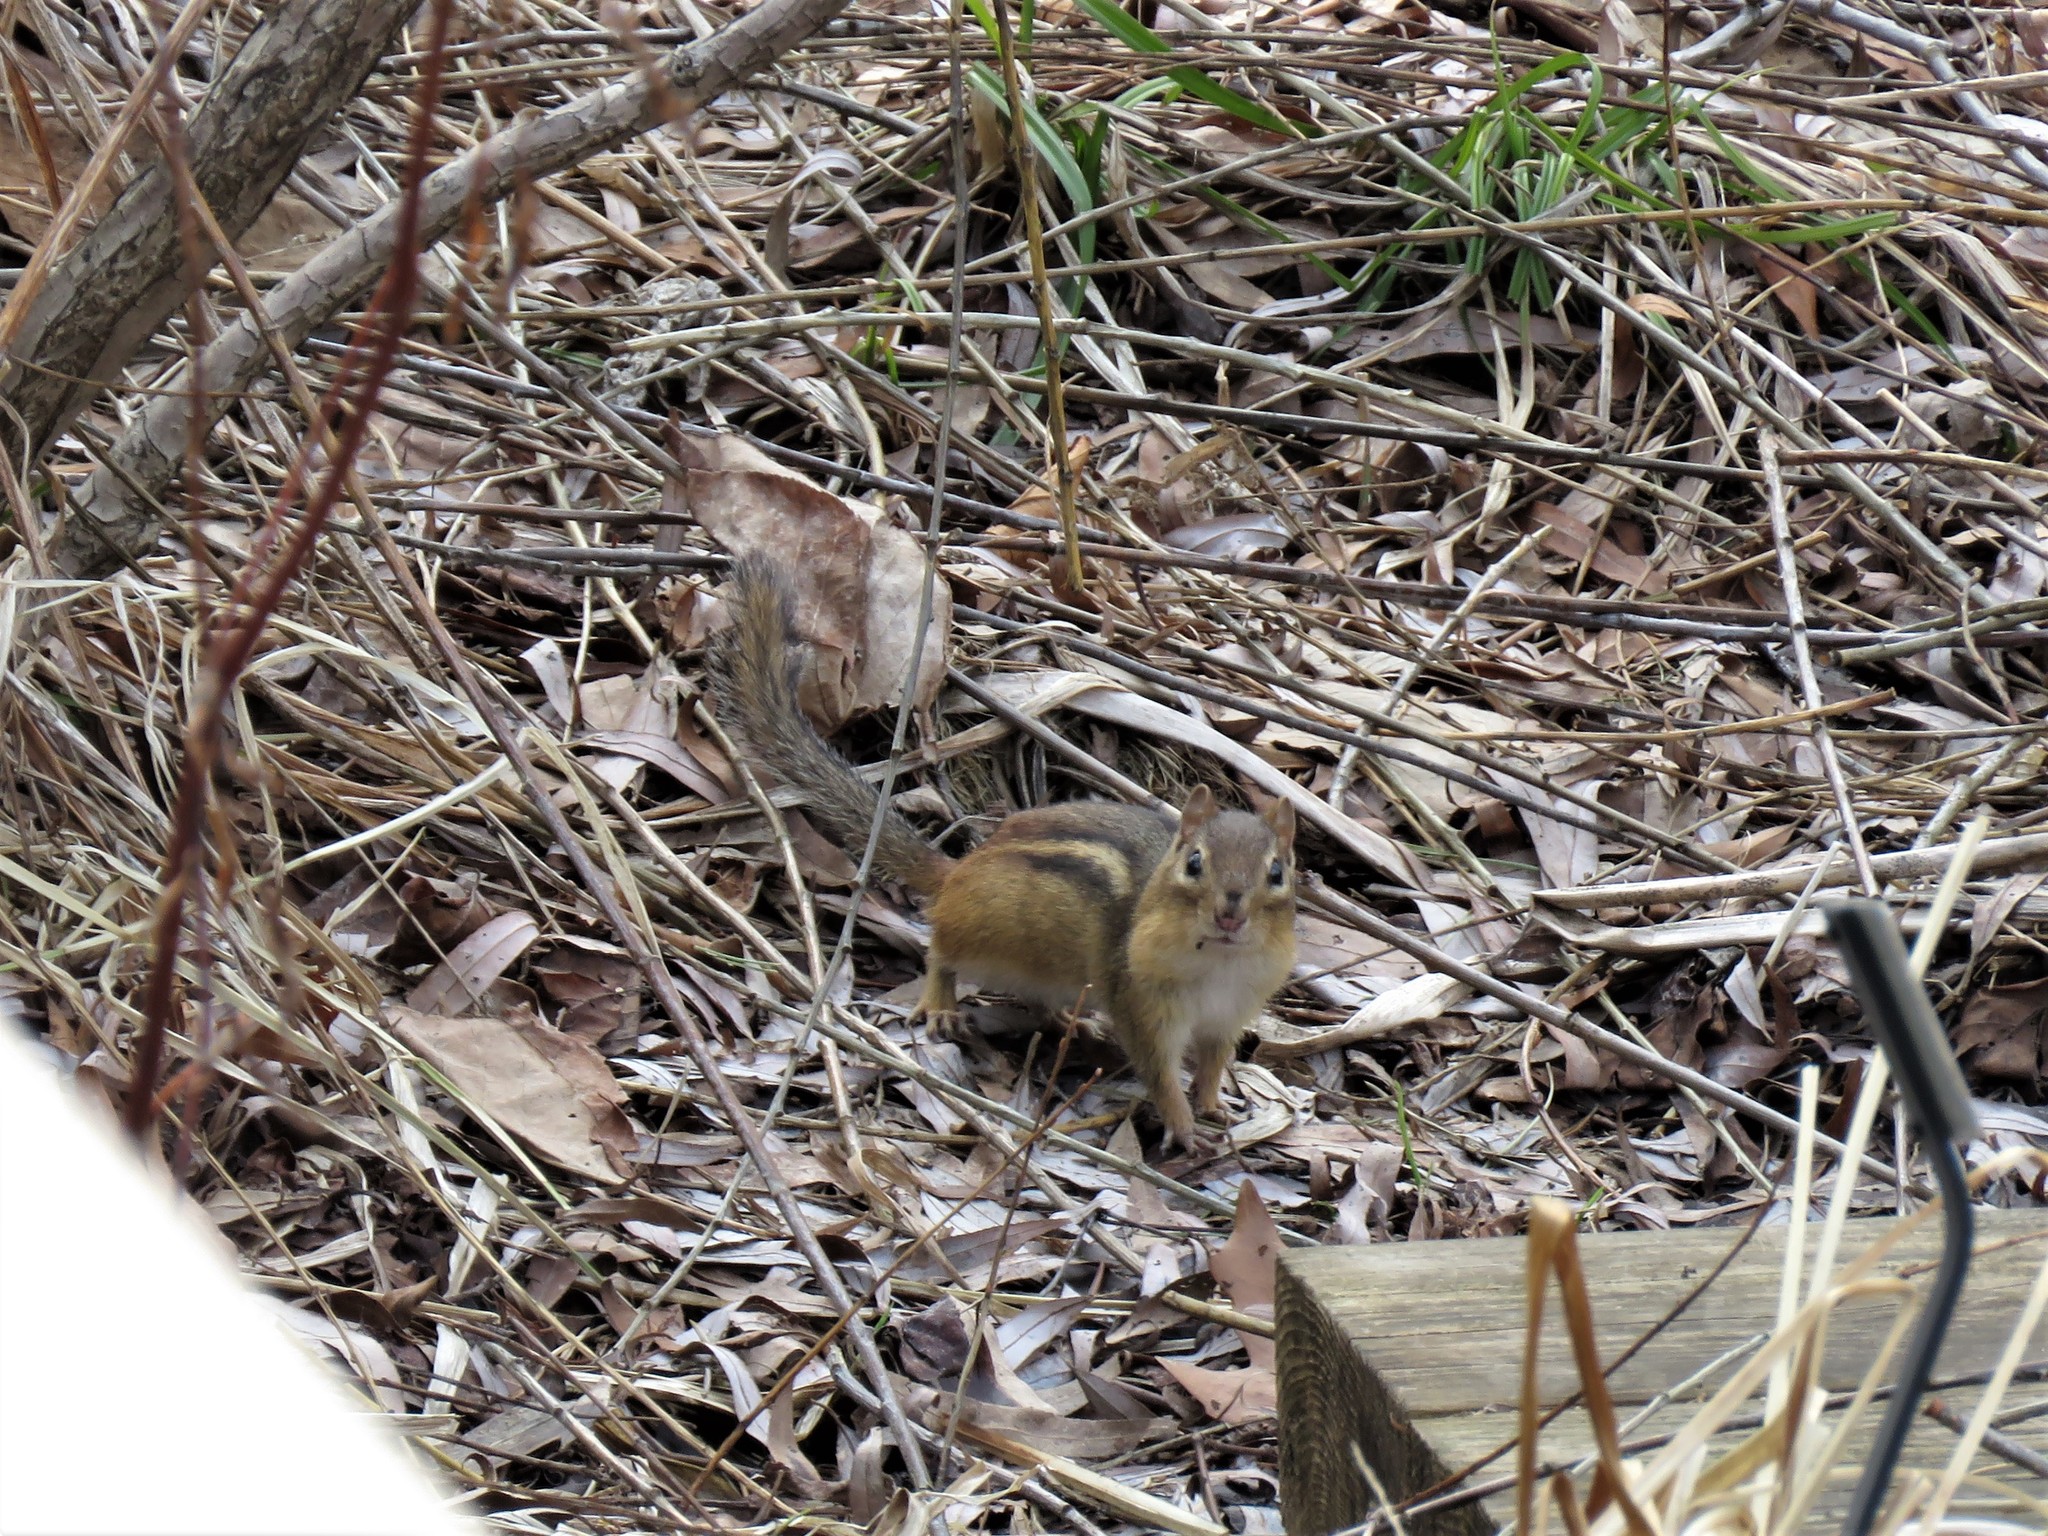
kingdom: Animalia
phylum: Chordata
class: Mammalia
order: Rodentia
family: Sciuridae
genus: Tamias
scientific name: Tamias striatus
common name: Eastern chipmunk
